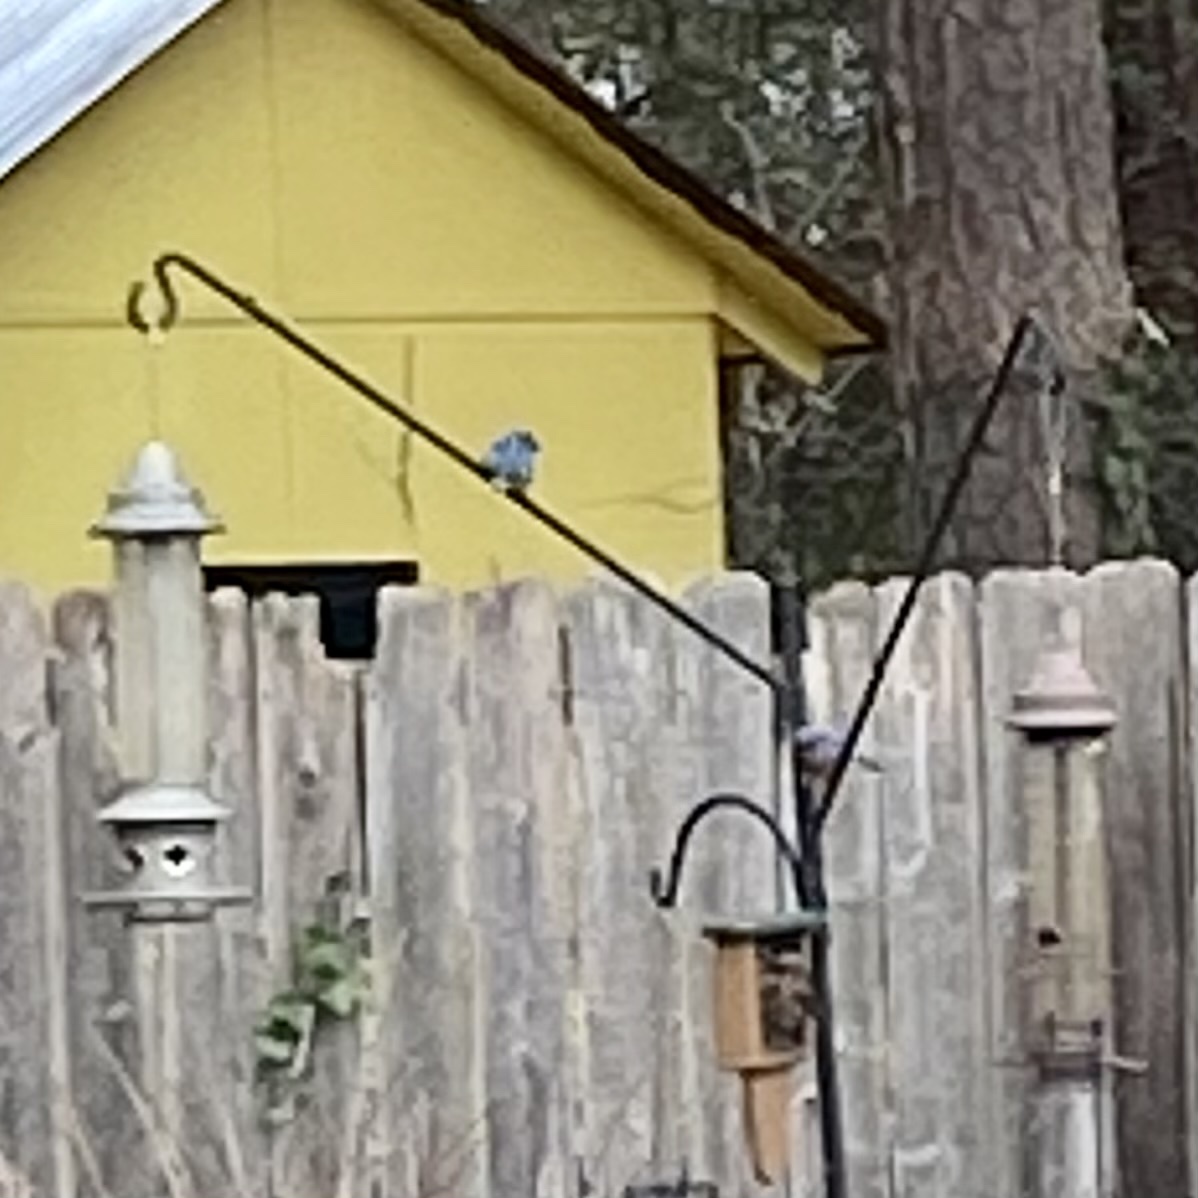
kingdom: Animalia
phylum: Chordata
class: Aves
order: Passeriformes
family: Turdidae
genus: Sialia
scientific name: Sialia sialis
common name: Eastern bluebird
